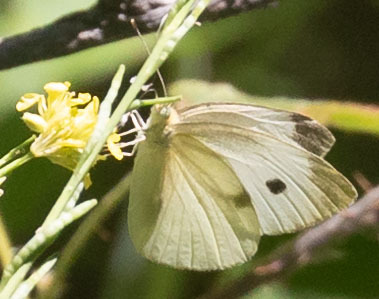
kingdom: Animalia
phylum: Arthropoda
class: Insecta
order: Lepidoptera
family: Pieridae
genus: Pieris
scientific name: Pieris rapae
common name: Small white
